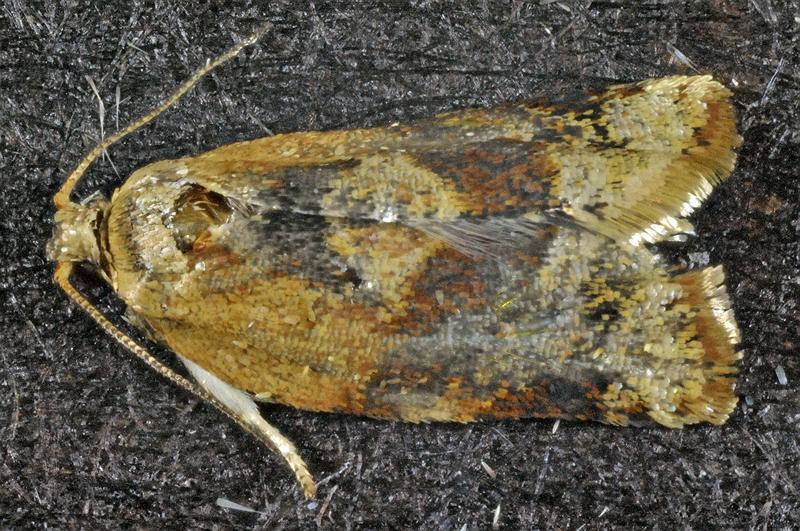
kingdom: Animalia
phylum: Arthropoda
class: Insecta
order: Lepidoptera
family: Tortricidae
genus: Argyrotaenia
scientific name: Argyrotaenia velutinana
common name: Red-banded leafroller moth
